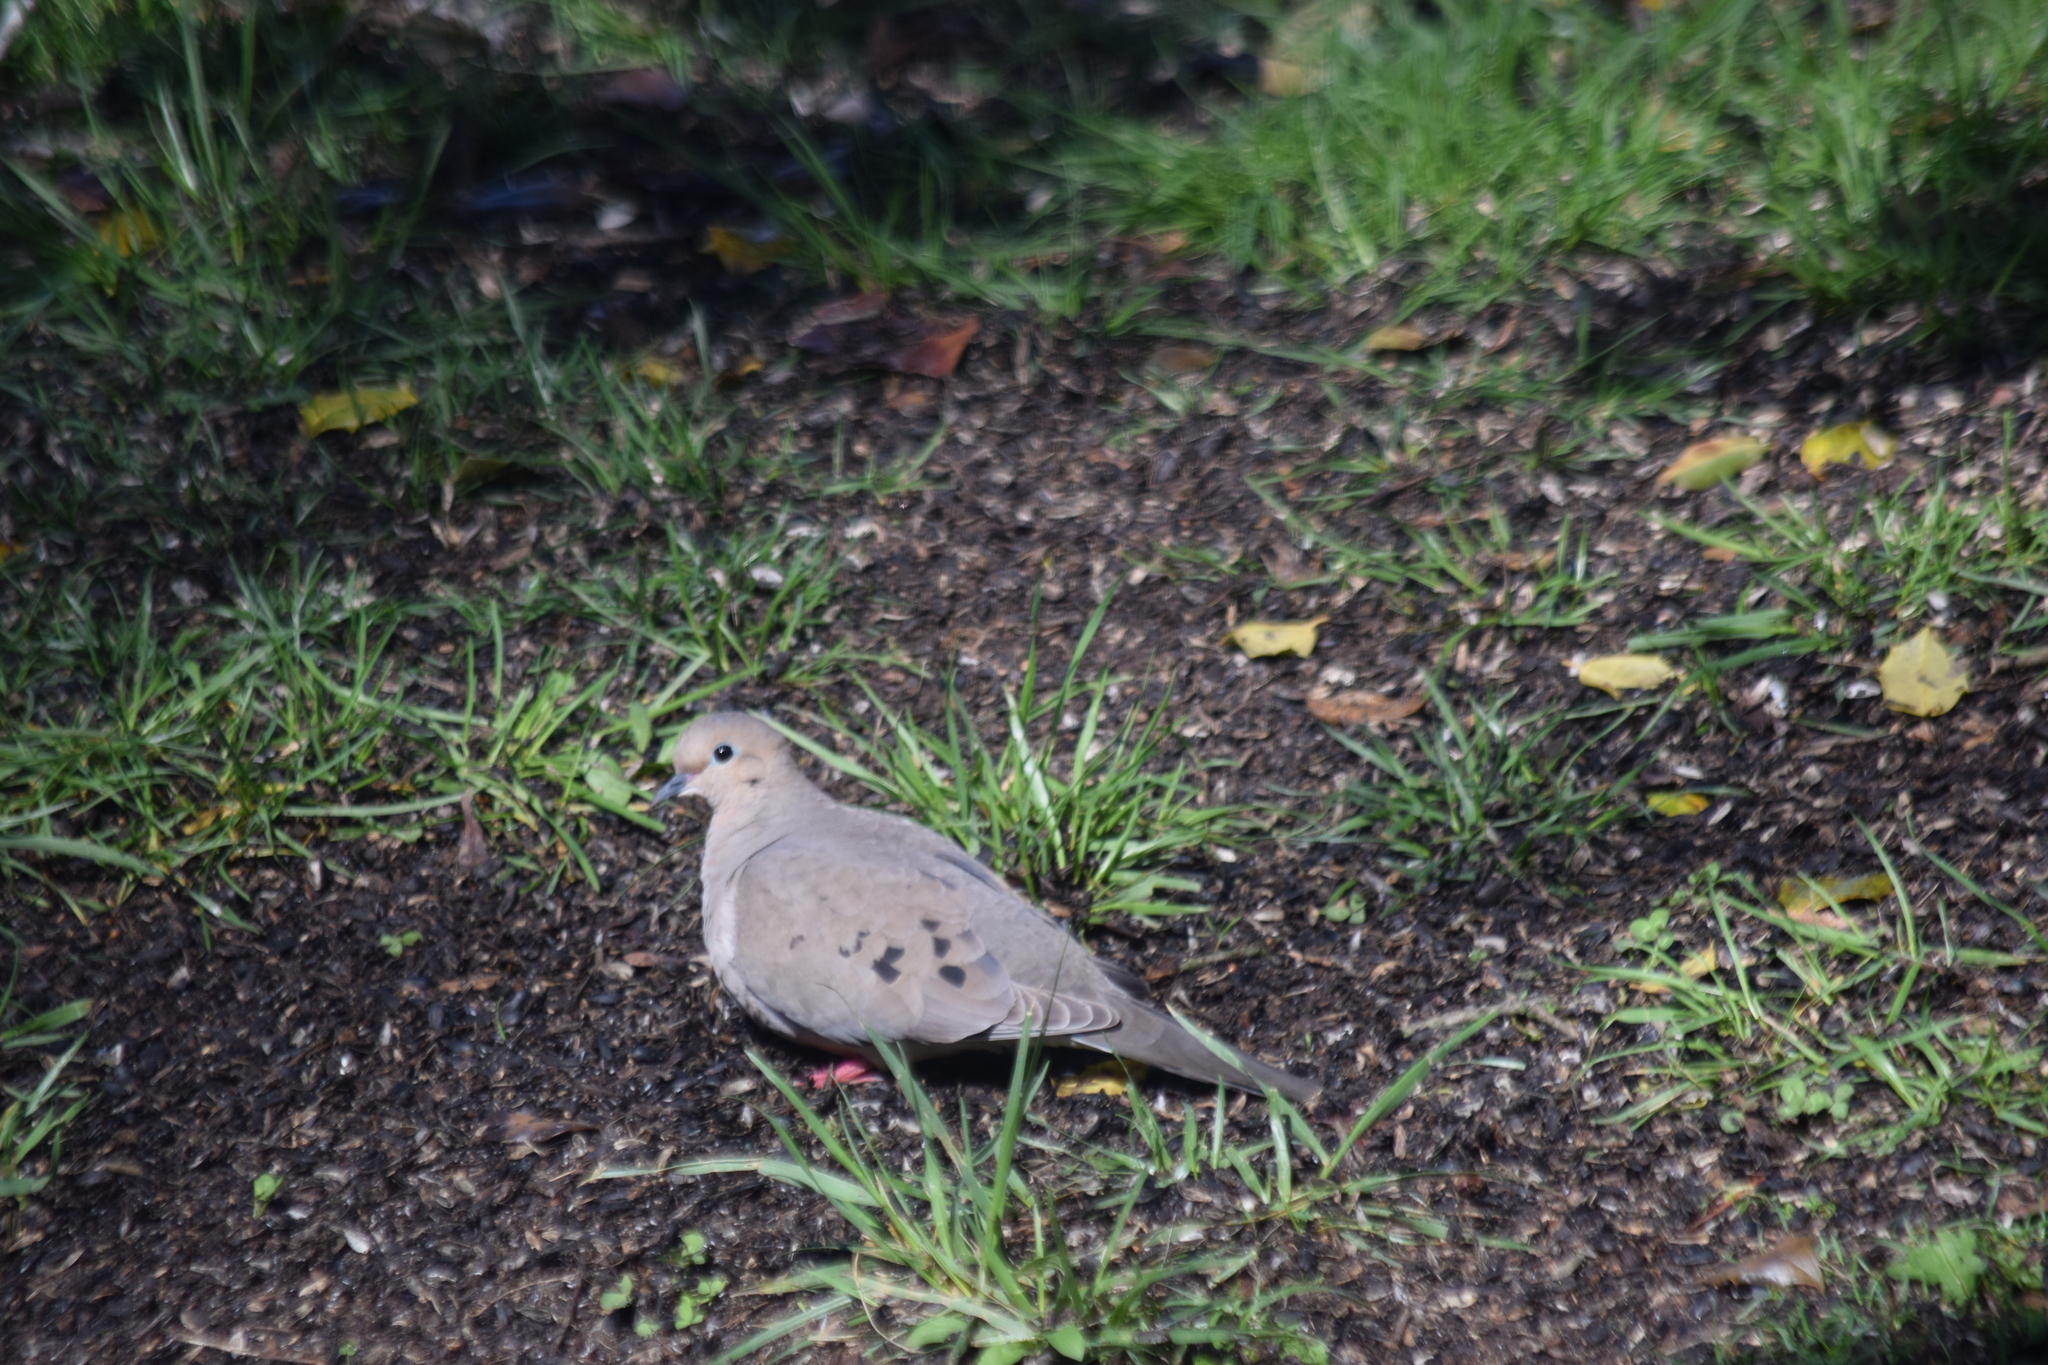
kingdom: Animalia
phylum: Chordata
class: Aves
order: Columbiformes
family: Columbidae
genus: Zenaida
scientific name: Zenaida macroura
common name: Mourning dove
